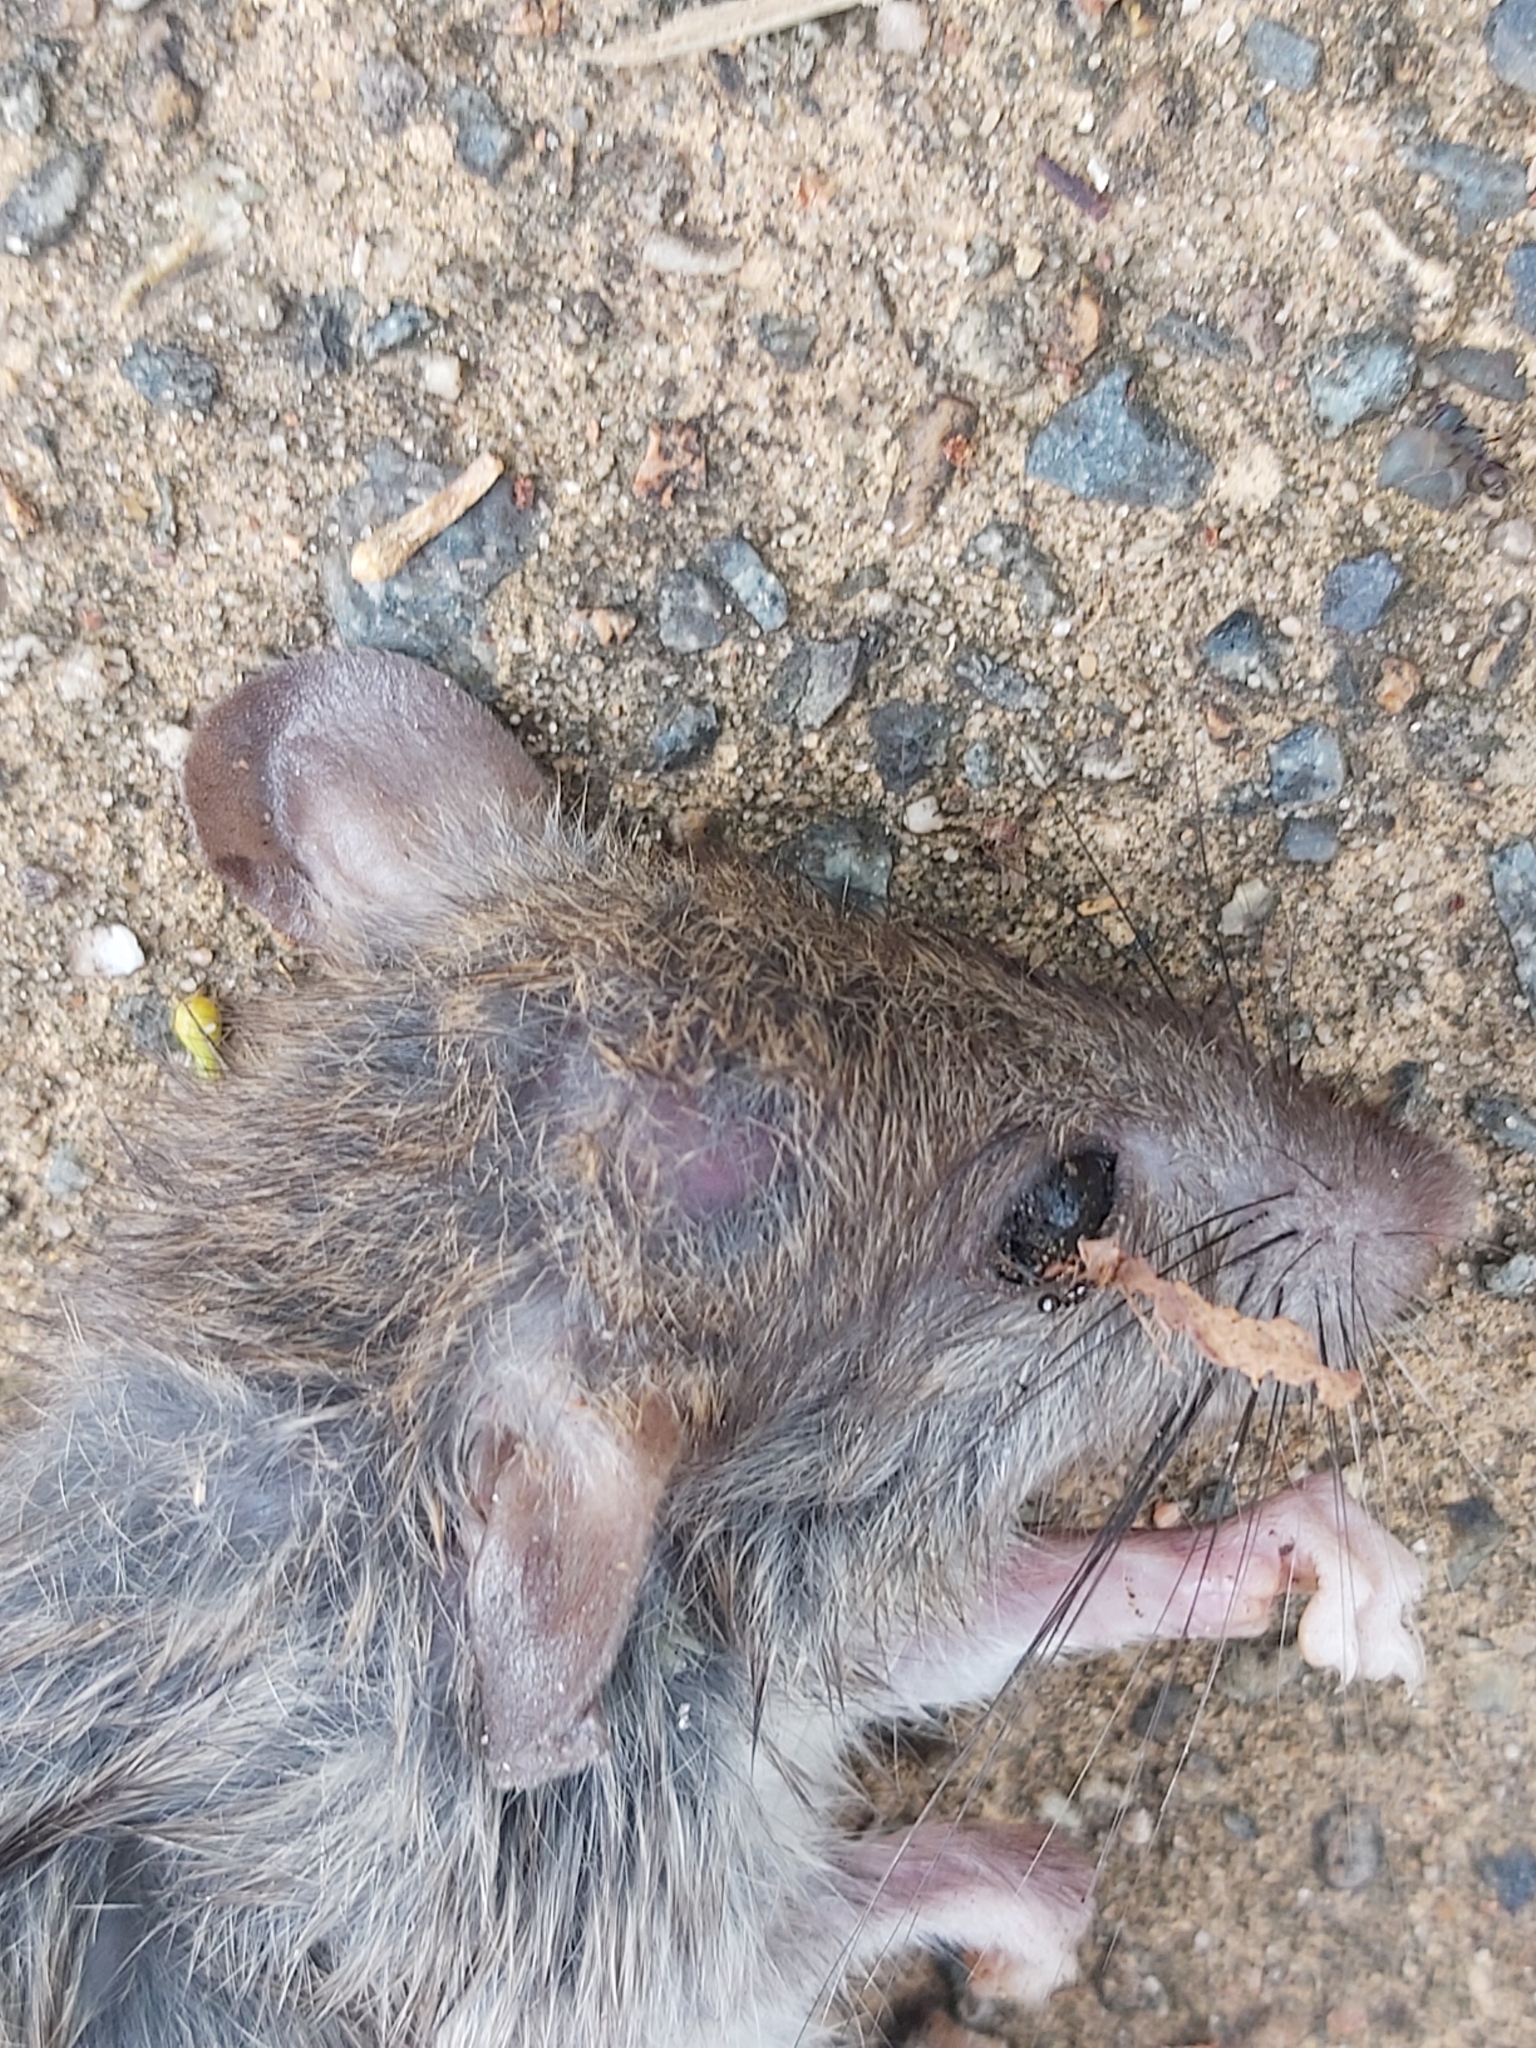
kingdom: Animalia
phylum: Chordata
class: Mammalia
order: Rodentia
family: Muridae
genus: Rattus
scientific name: Rattus rattus
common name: Black rat
